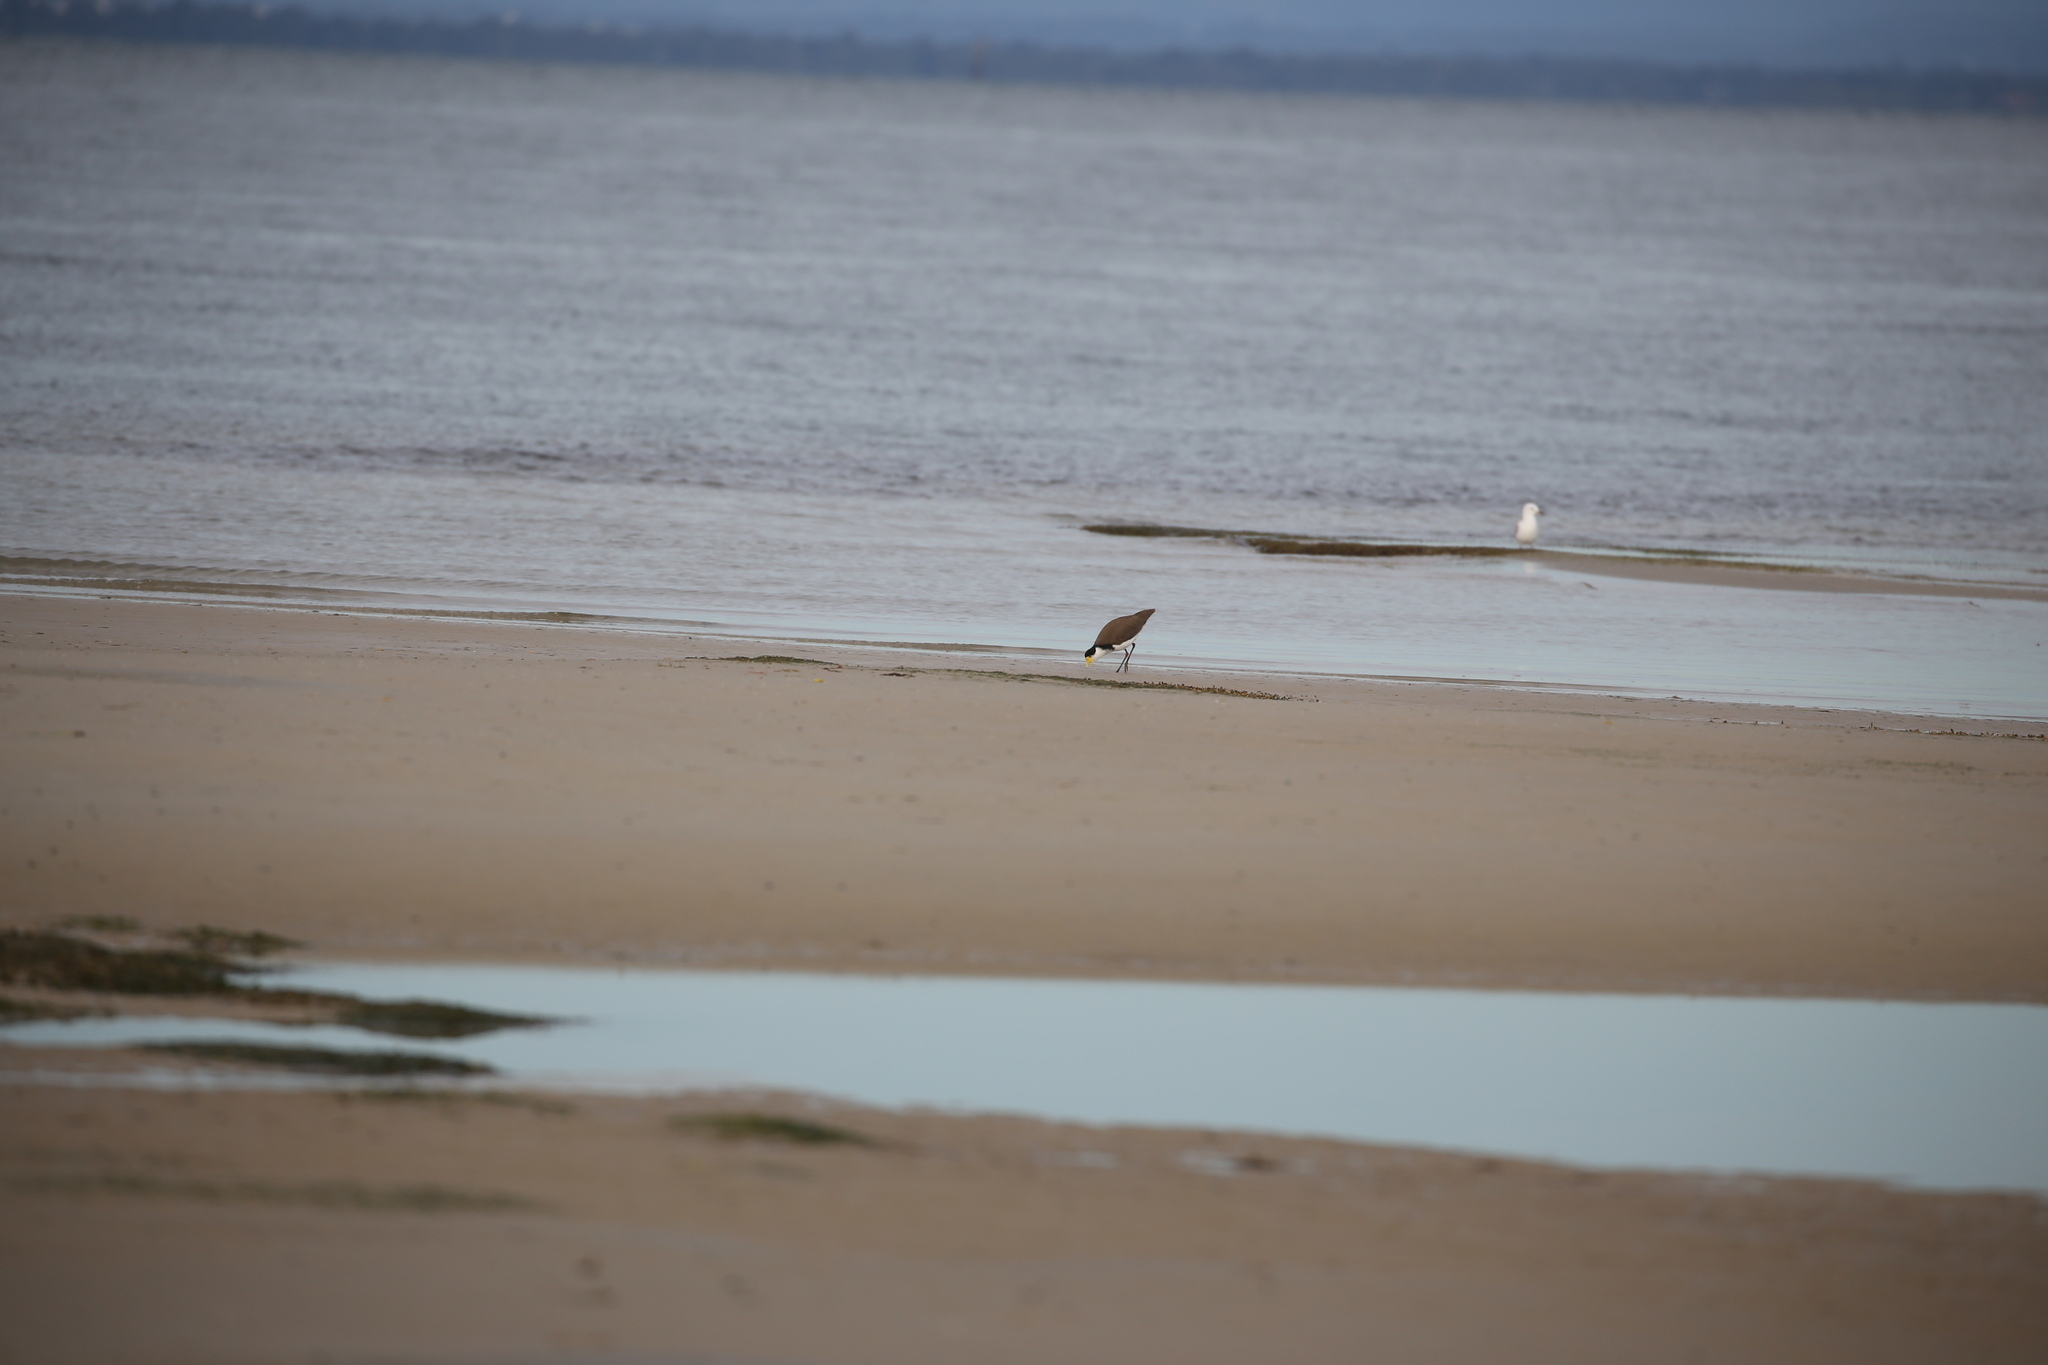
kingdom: Animalia
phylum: Chordata
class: Aves
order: Charadriiformes
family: Charadriidae
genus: Vanellus
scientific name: Vanellus miles
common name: Masked lapwing
